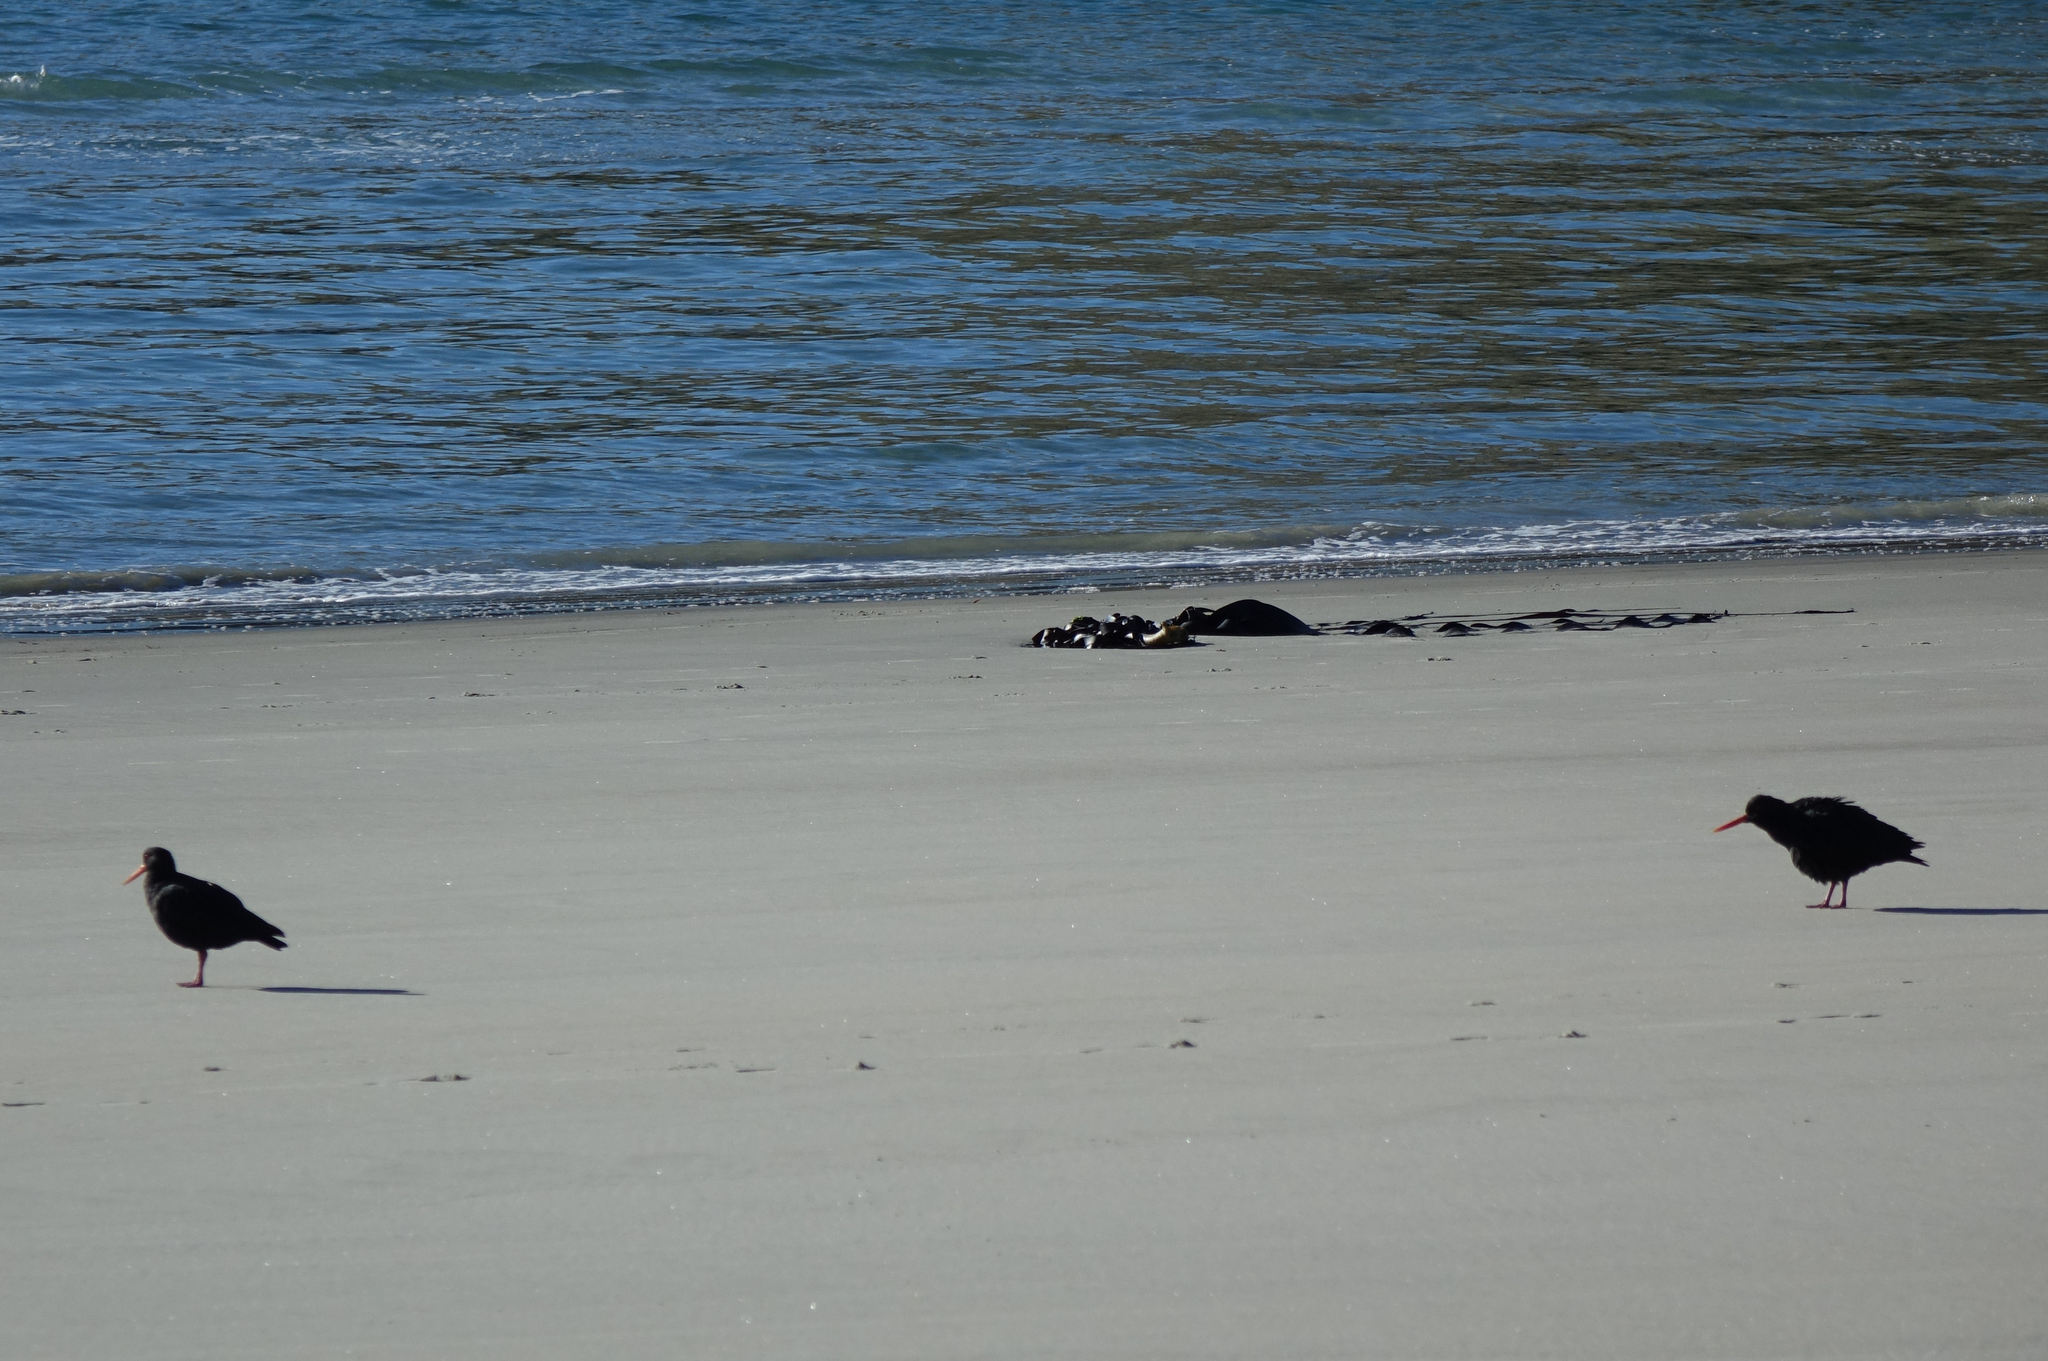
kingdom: Animalia
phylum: Chordata
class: Aves
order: Charadriiformes
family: Haematopodidae
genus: Haematopus
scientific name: Haematopus unicolor
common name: Variable oystercatcher
